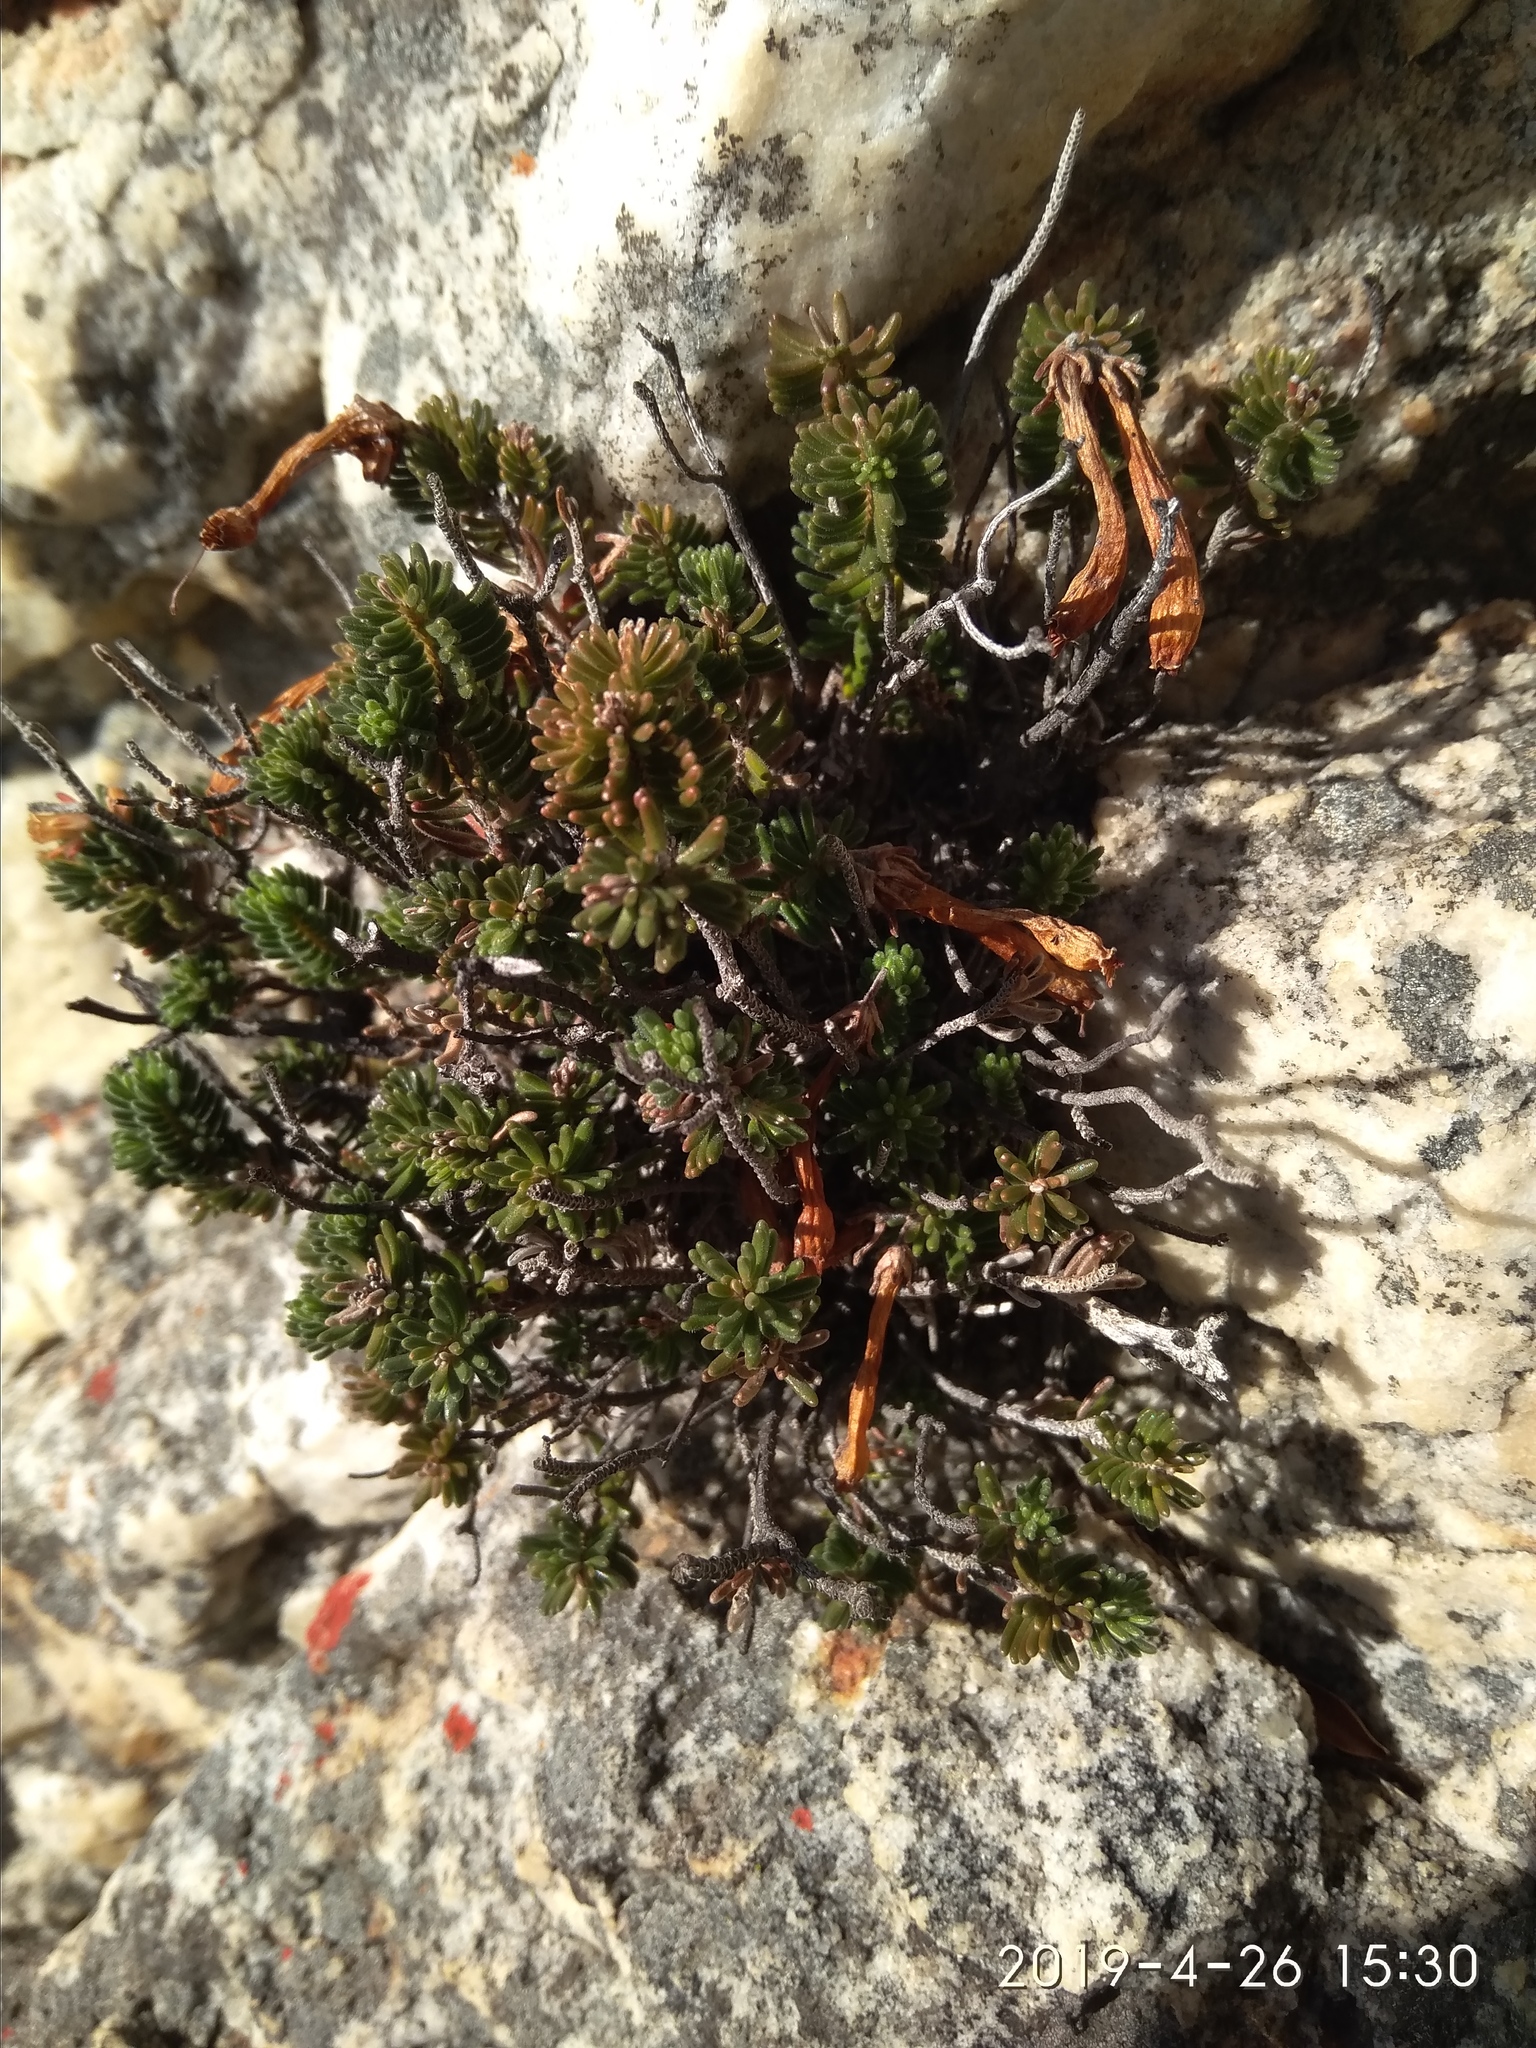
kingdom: Plantae
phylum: Tracheophyta
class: Magnoliopsida
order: Ericales
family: Ericaceae
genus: Erica
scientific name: Erica amidae
